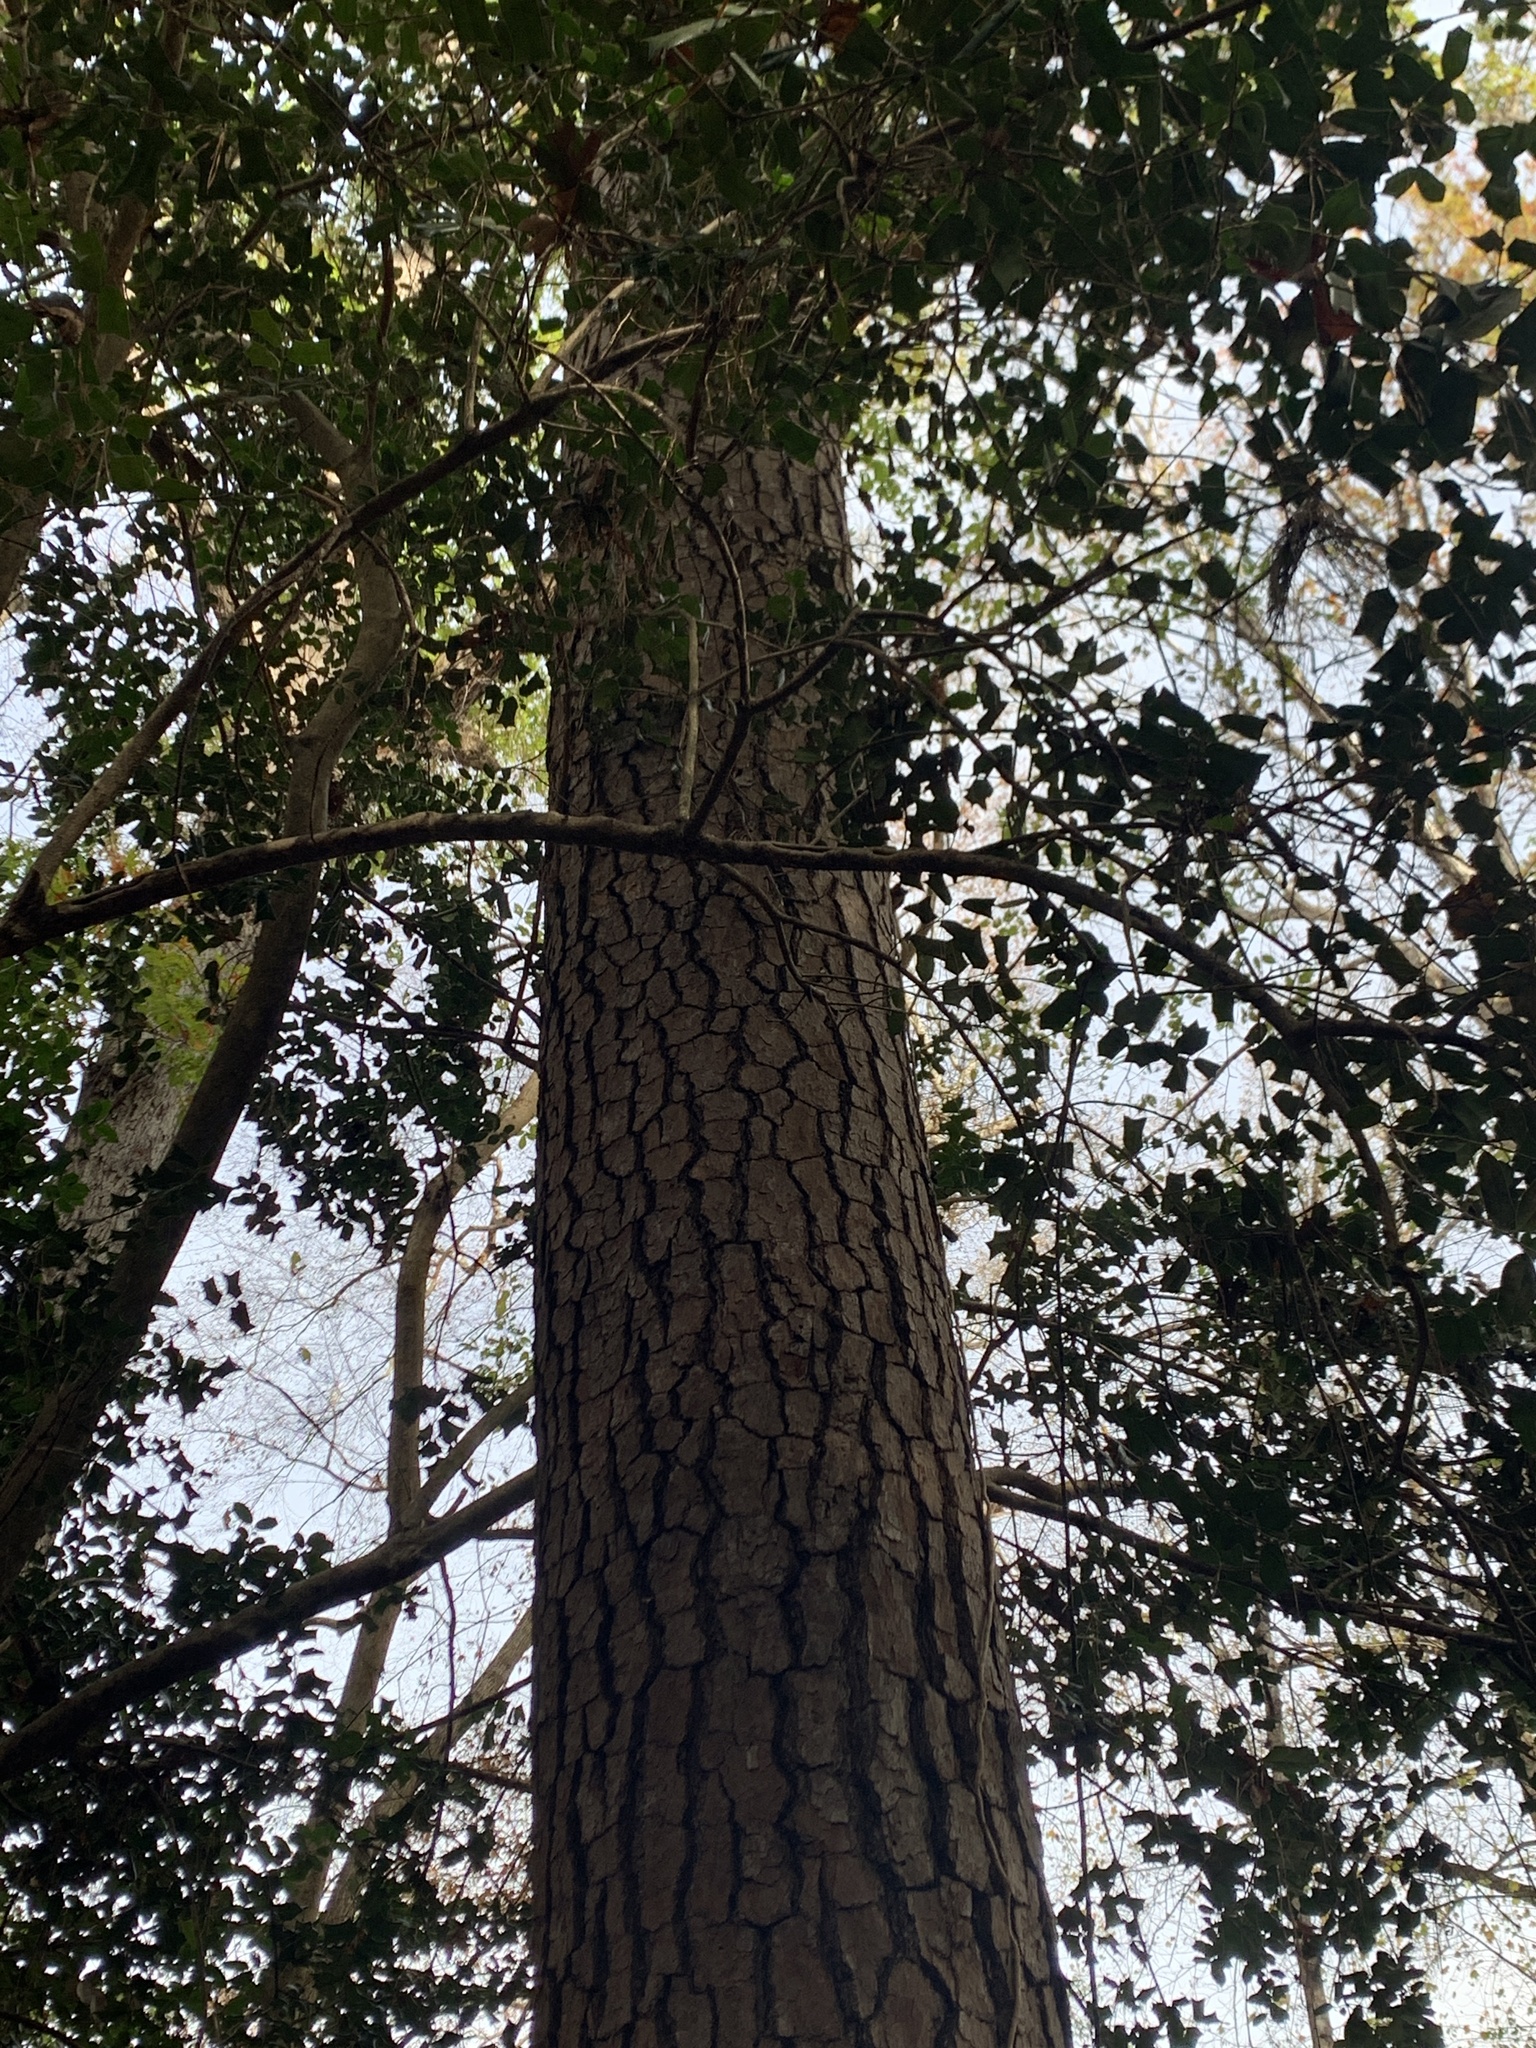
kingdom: Plantae
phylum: Tracheophyta
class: Pinopsida
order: Pinales
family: Pinaceae
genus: Pinus
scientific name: Pinus taeda
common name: Loblolly pine
